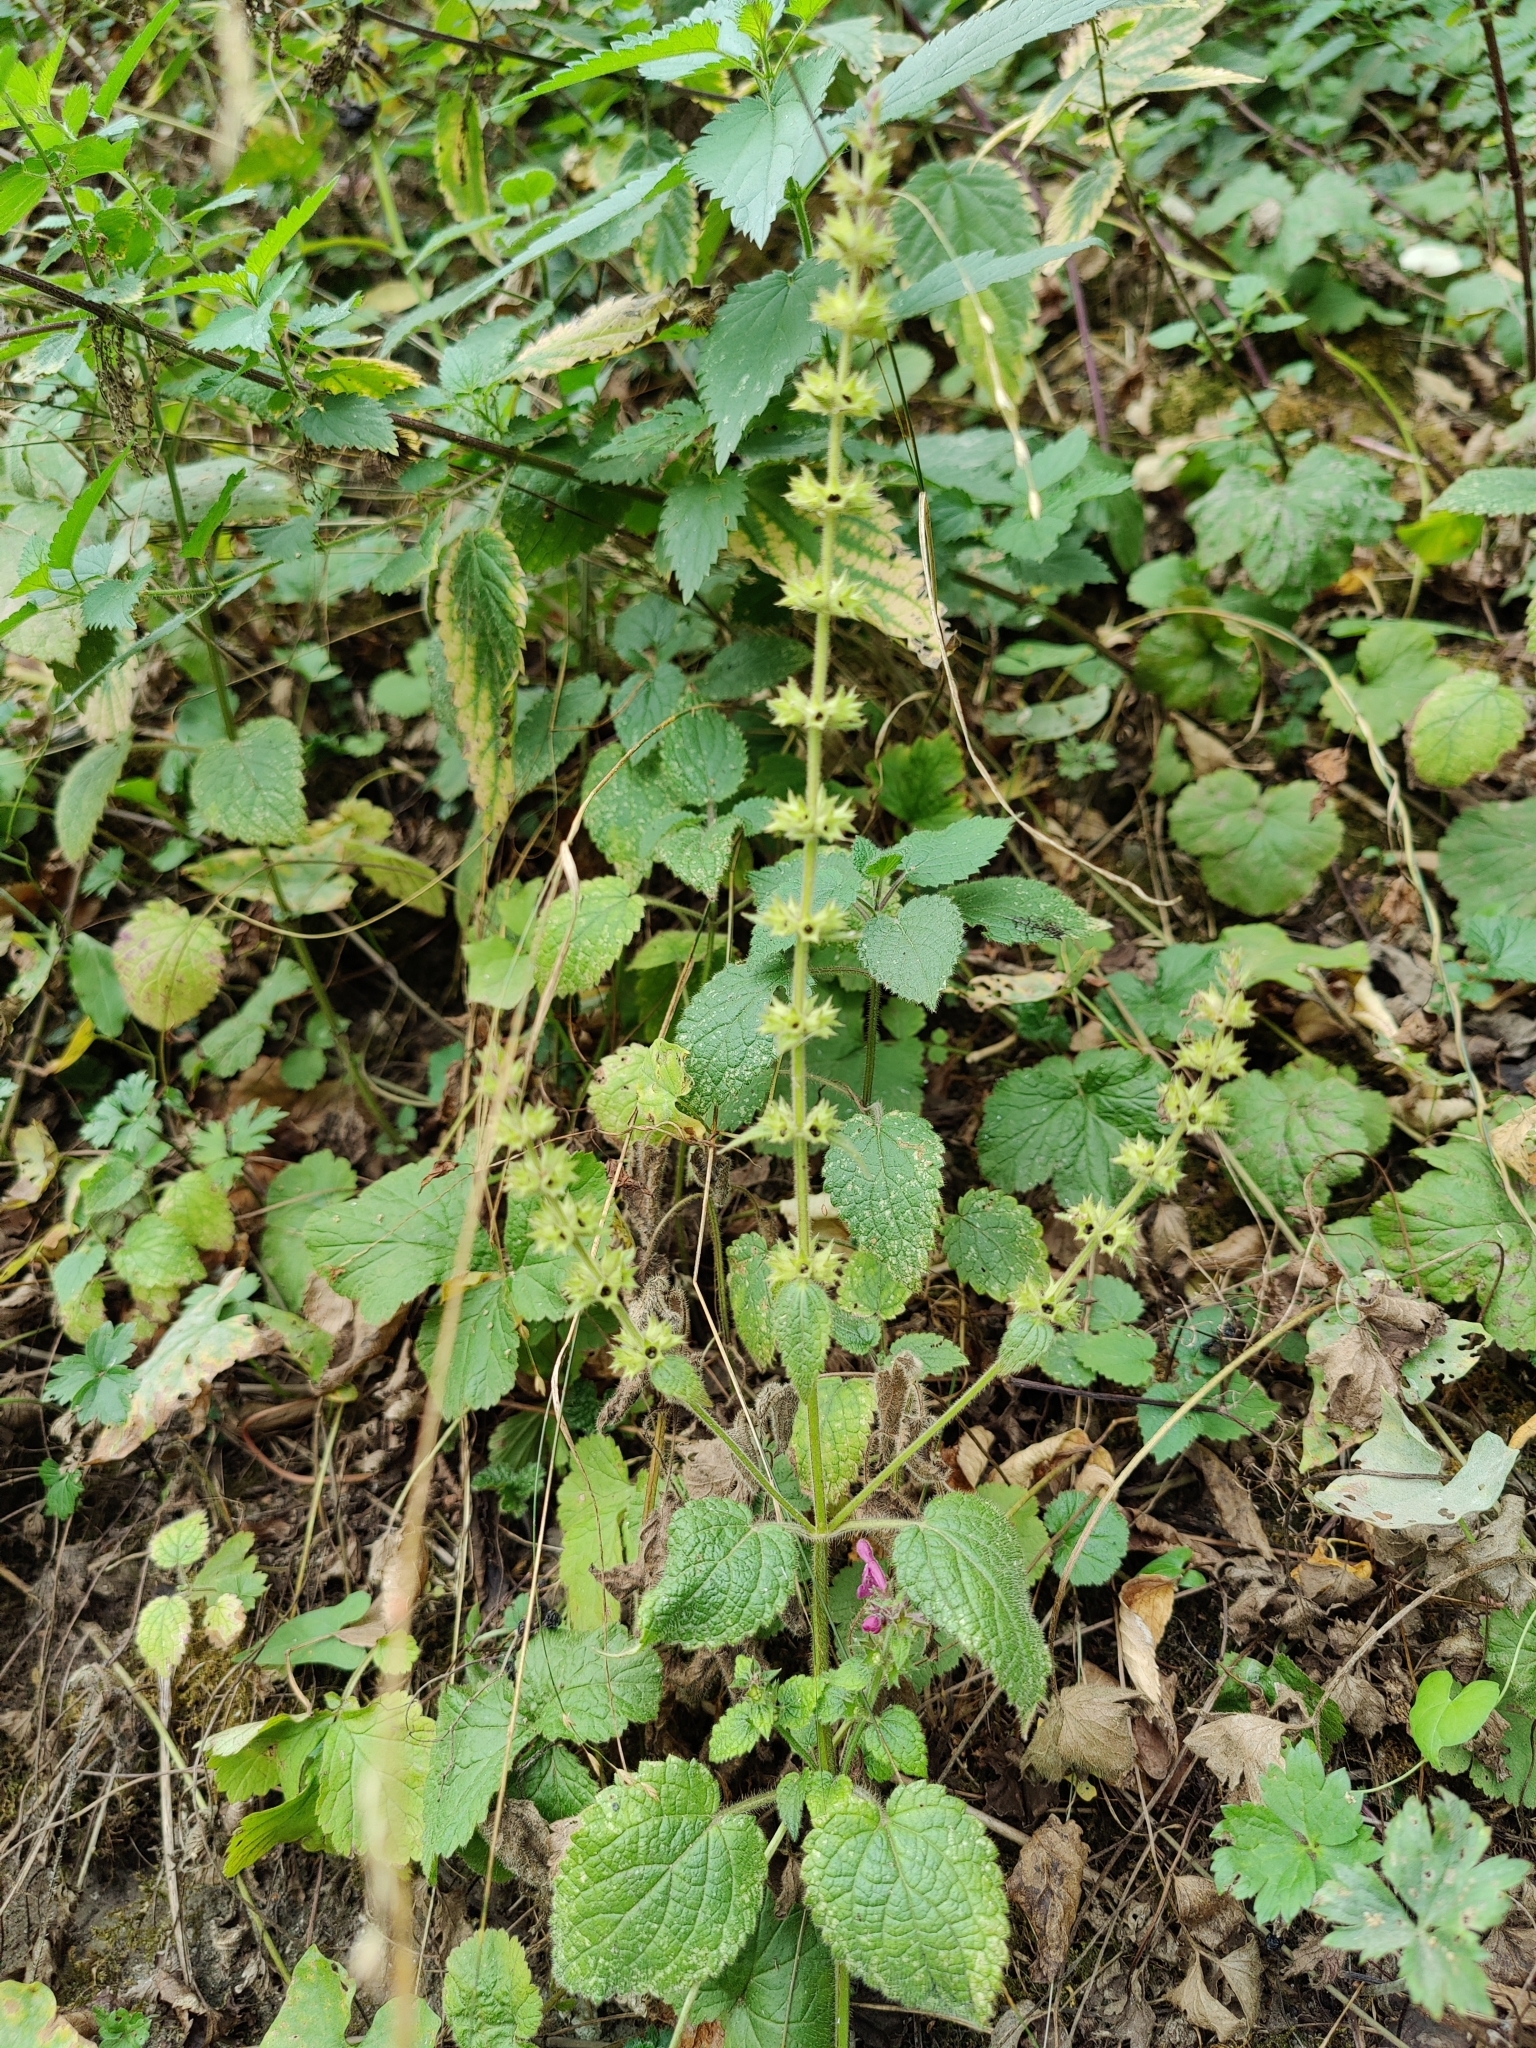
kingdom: Plantae
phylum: Tracheophyta
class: Magnoliopsida
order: Lamiales
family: Lamiaceae
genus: Stachys
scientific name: Stachys sylvatica
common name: Hedge woundwort
